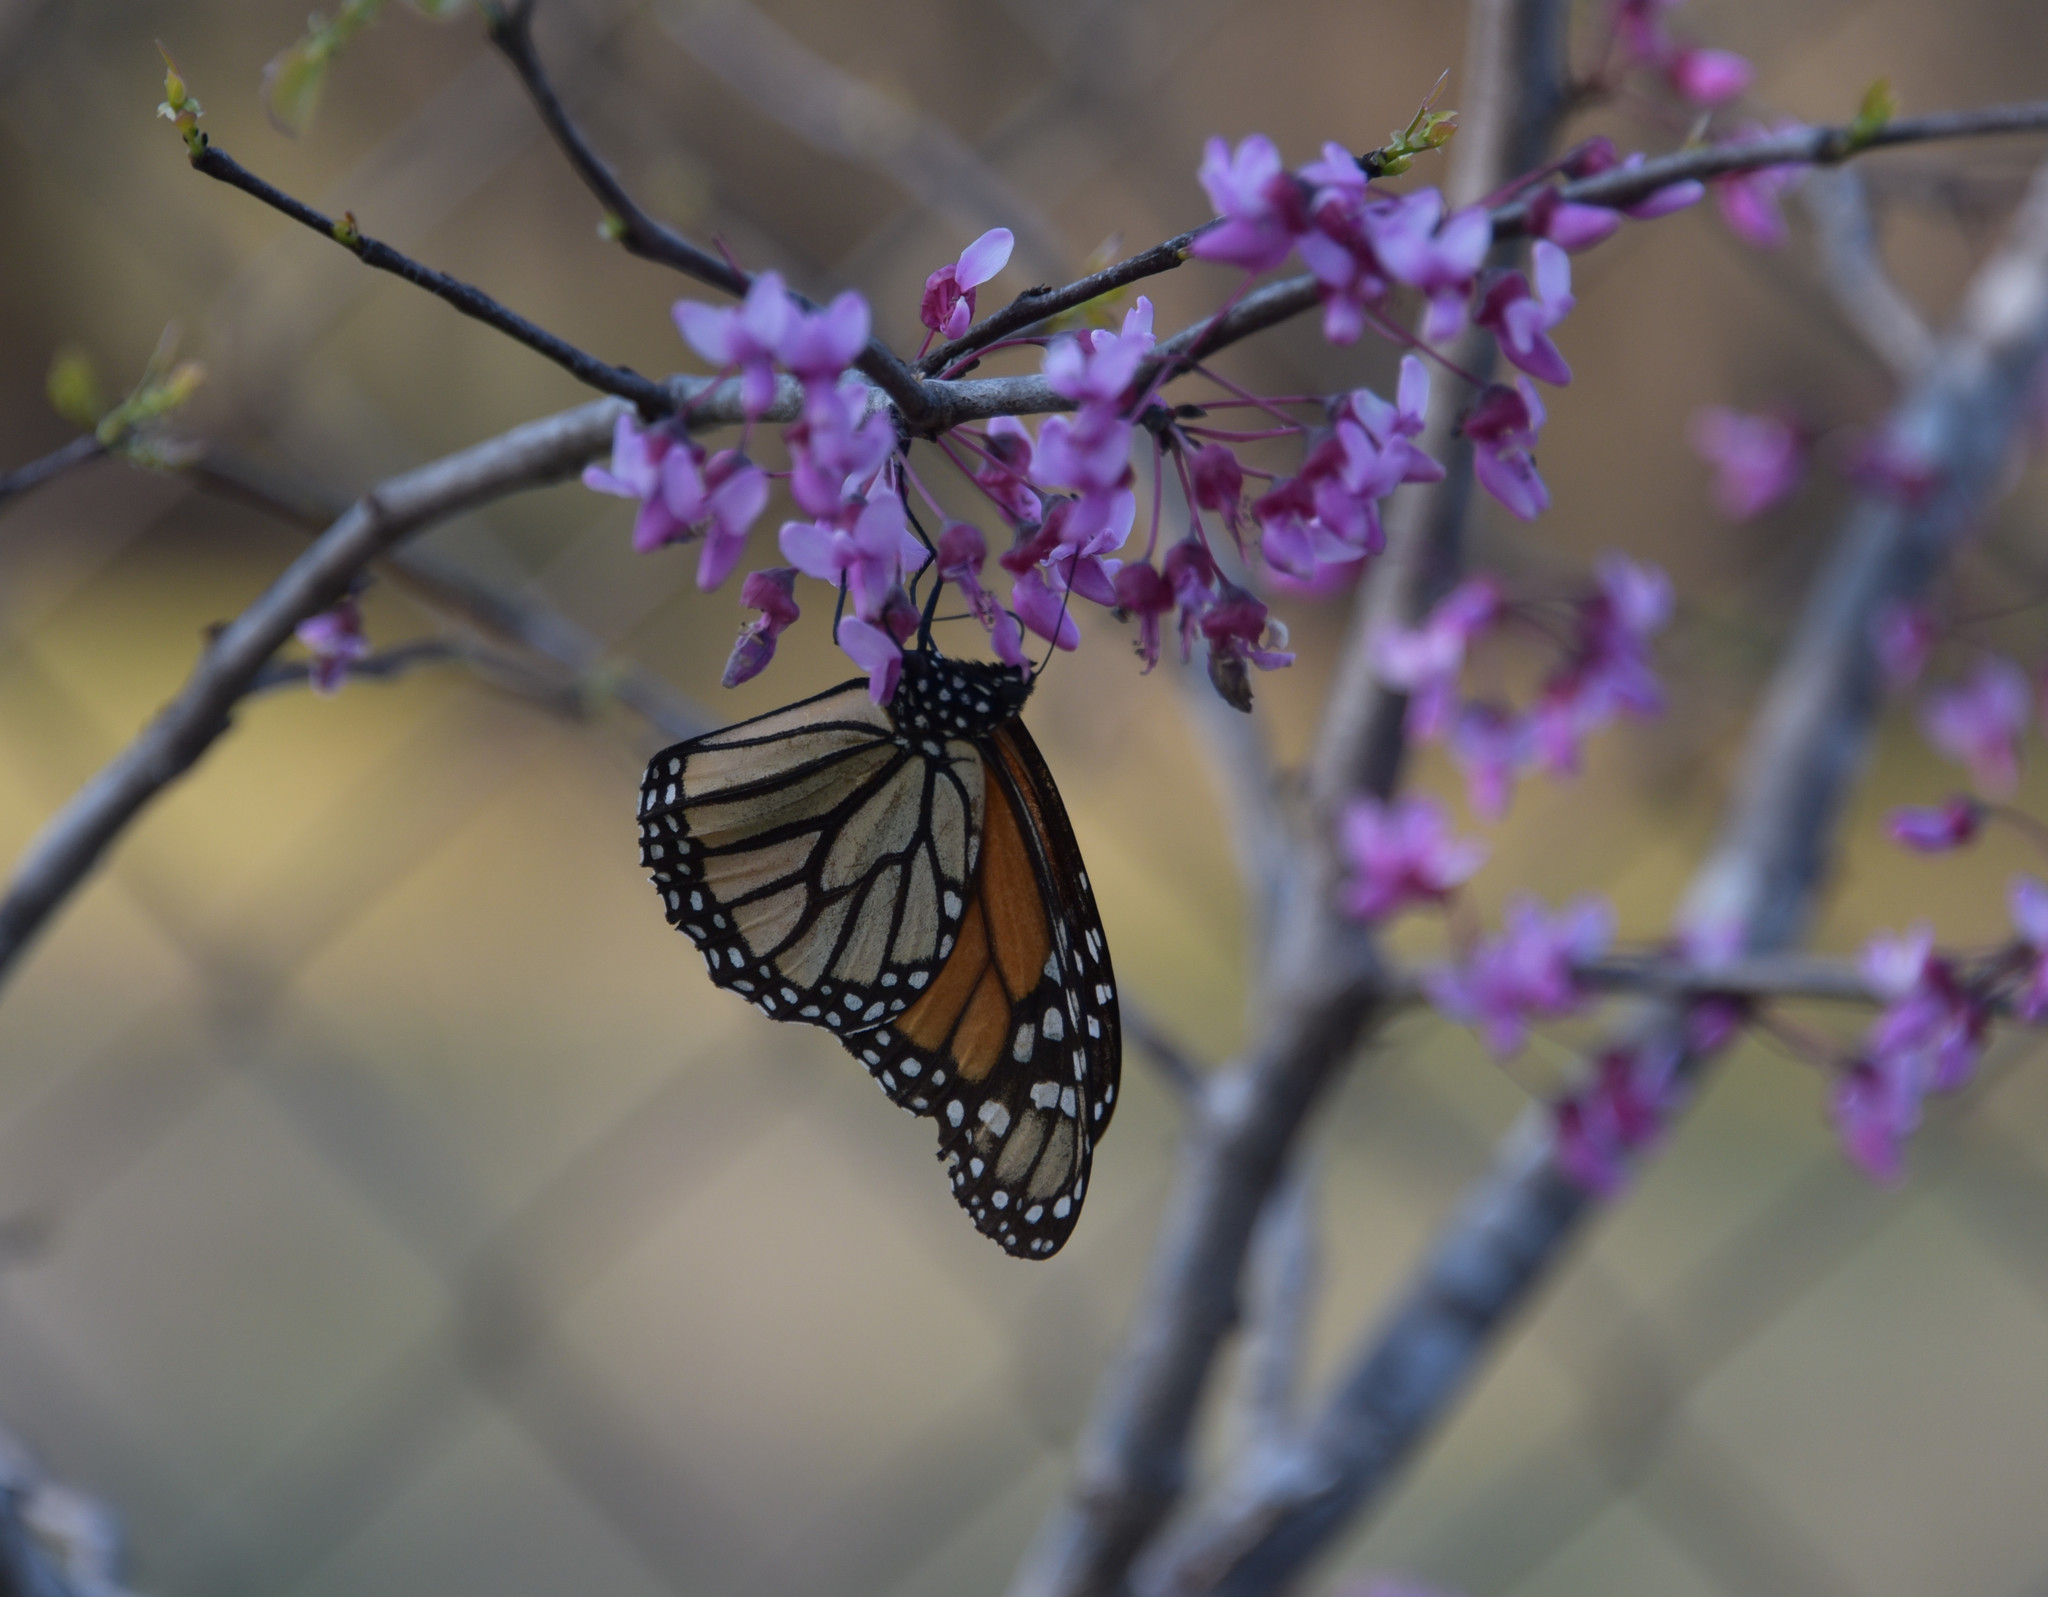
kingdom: Animalia
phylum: Arthropoda
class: Insecta
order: Lepidoptera
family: Nymphalidae
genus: Danaus
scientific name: Danaus plexippus
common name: Monarch
